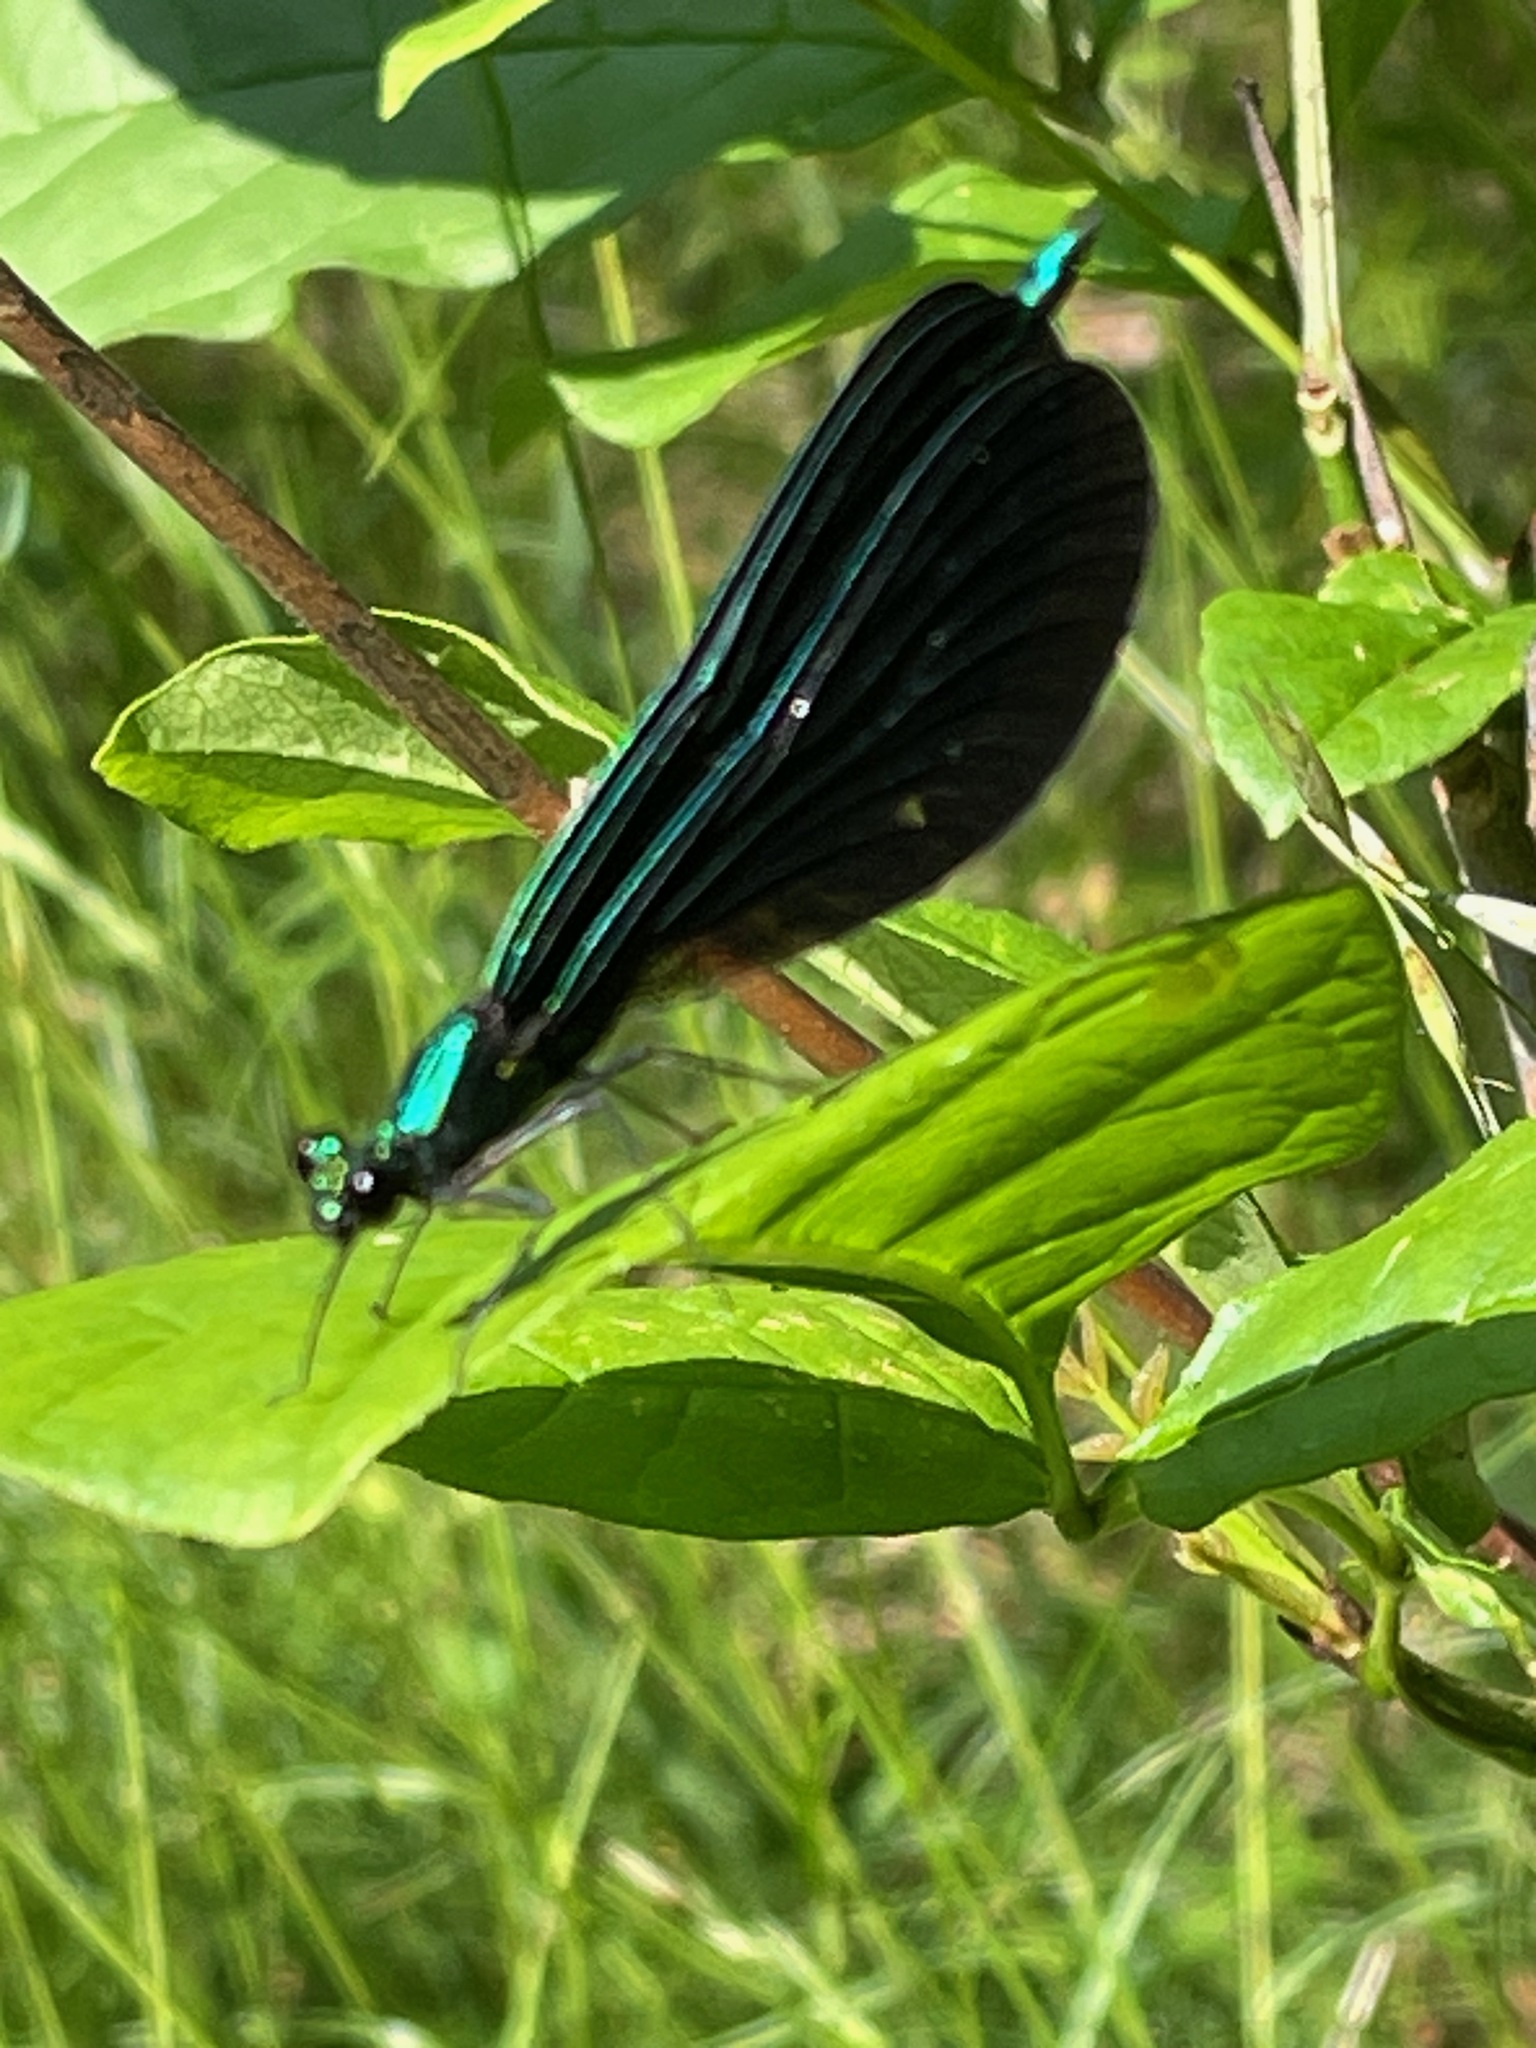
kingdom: Animalia
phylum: Arthropoda
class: Insecta
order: Odonata
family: Calopterygidae
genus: Calopteryx
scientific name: Calopteryx maculata
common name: Ebony jewelwing
